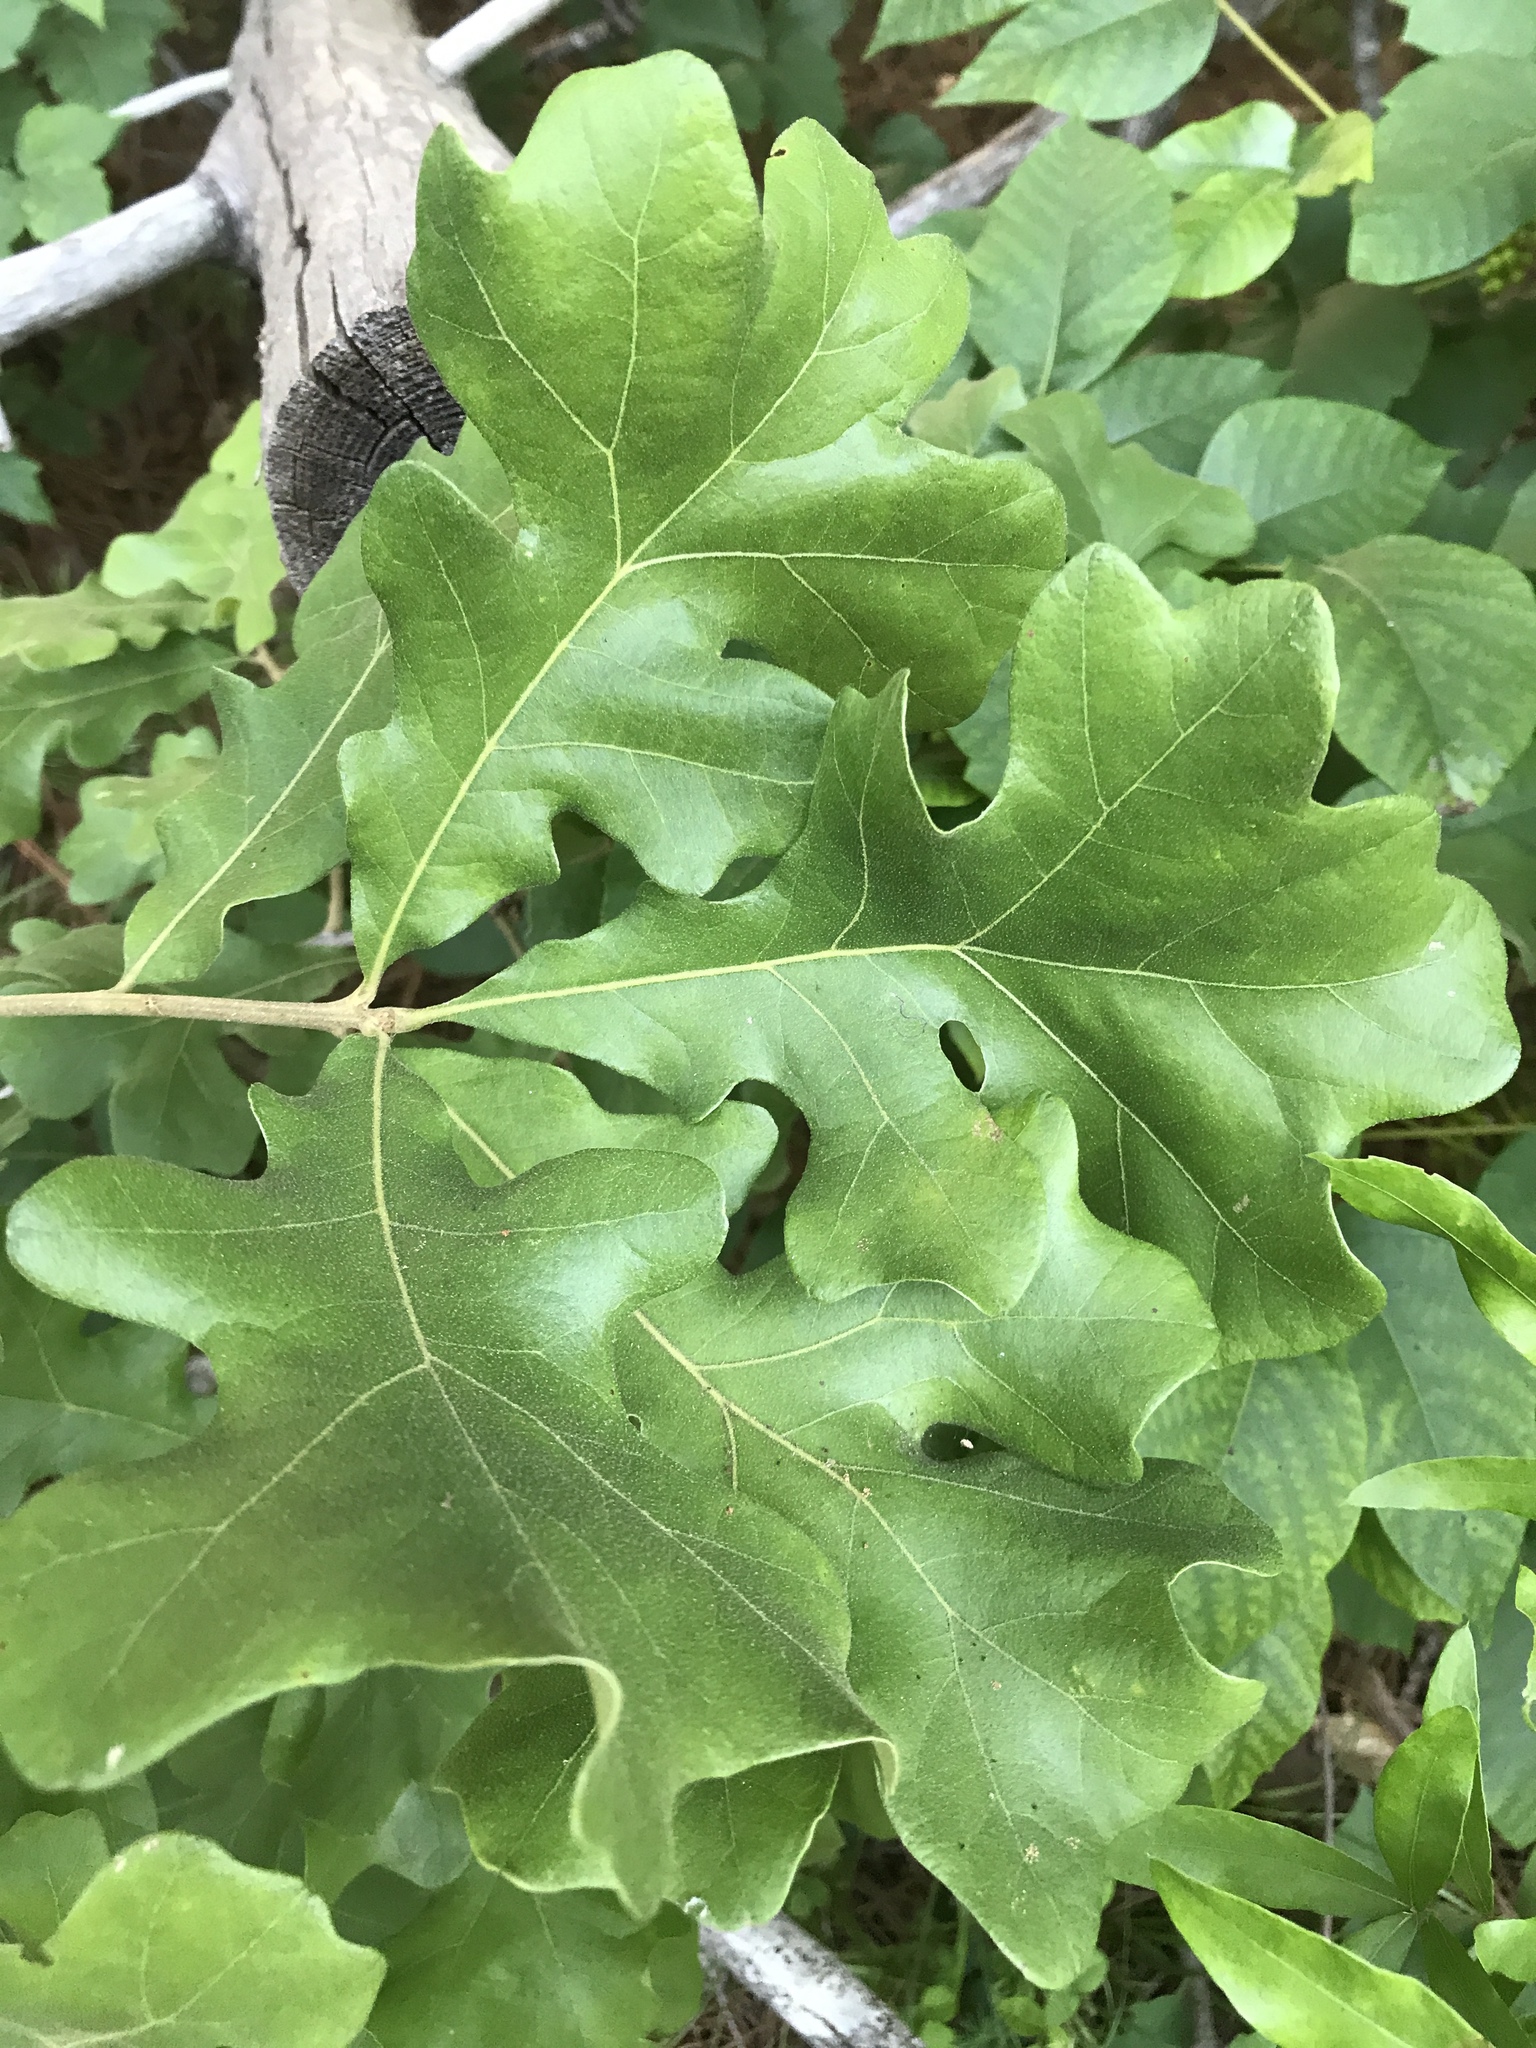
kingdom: Plantae
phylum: Tracheophyta
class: Magnoliopsida
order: Fagales
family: Fagaceae
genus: Quercus
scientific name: Quercus stellata
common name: Post oak
